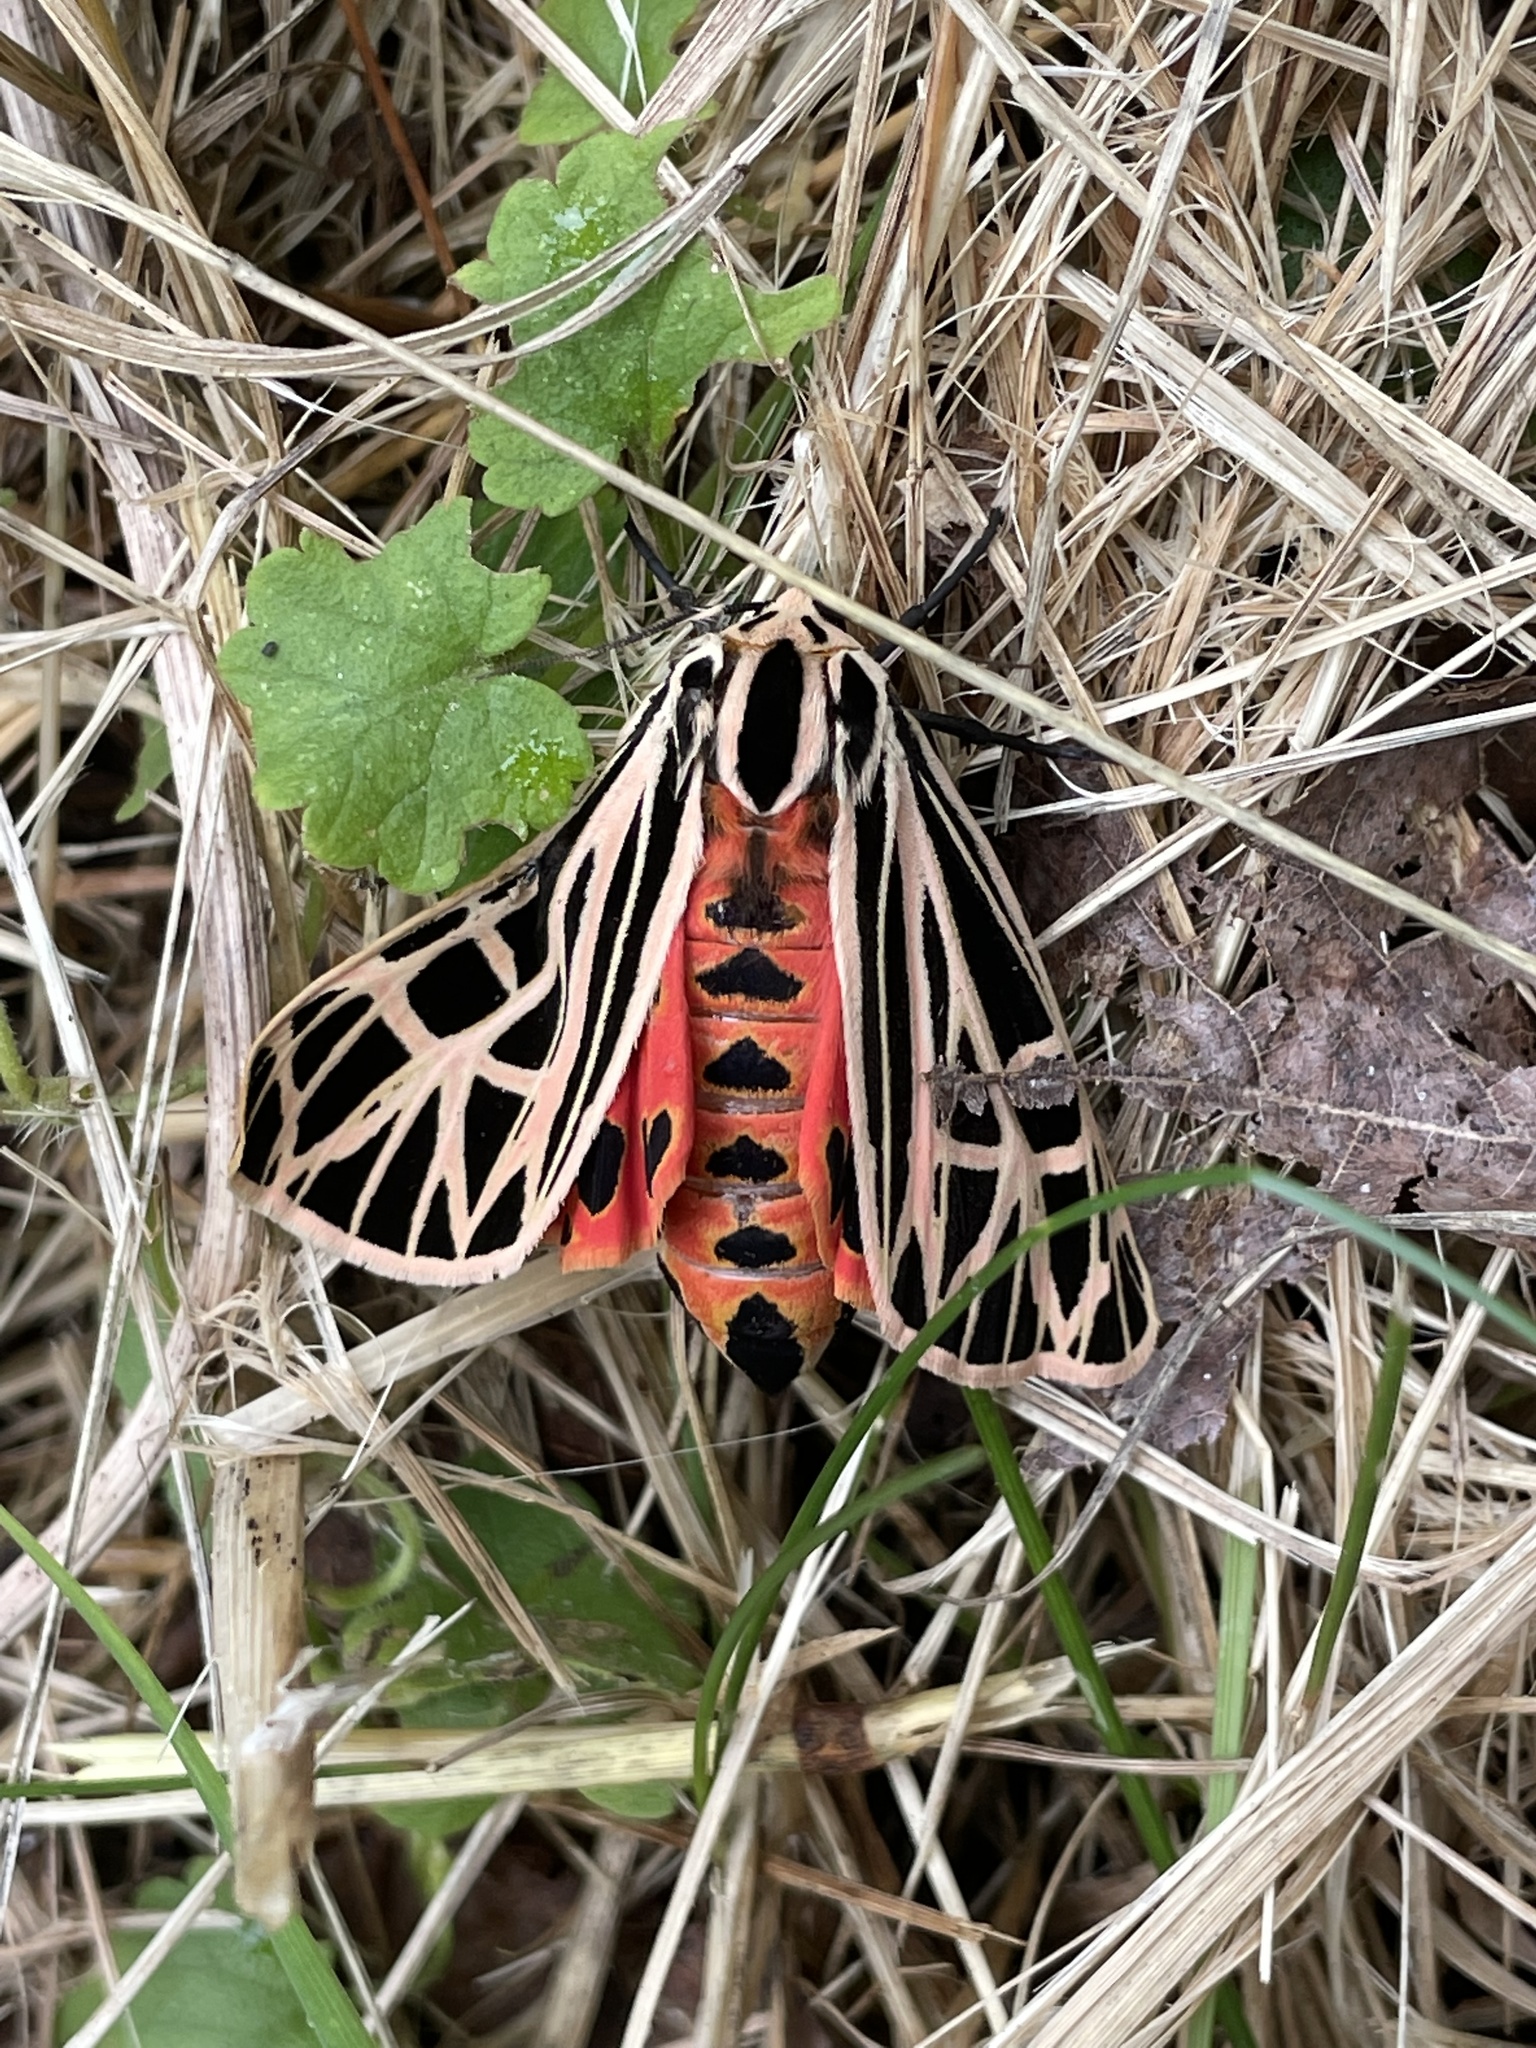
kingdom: Animalia
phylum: Arthropoda
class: Insecta
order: Lepidoptera
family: Erebidae
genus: Grammia
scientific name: Grammia virgo
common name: Virgin tiger moth
